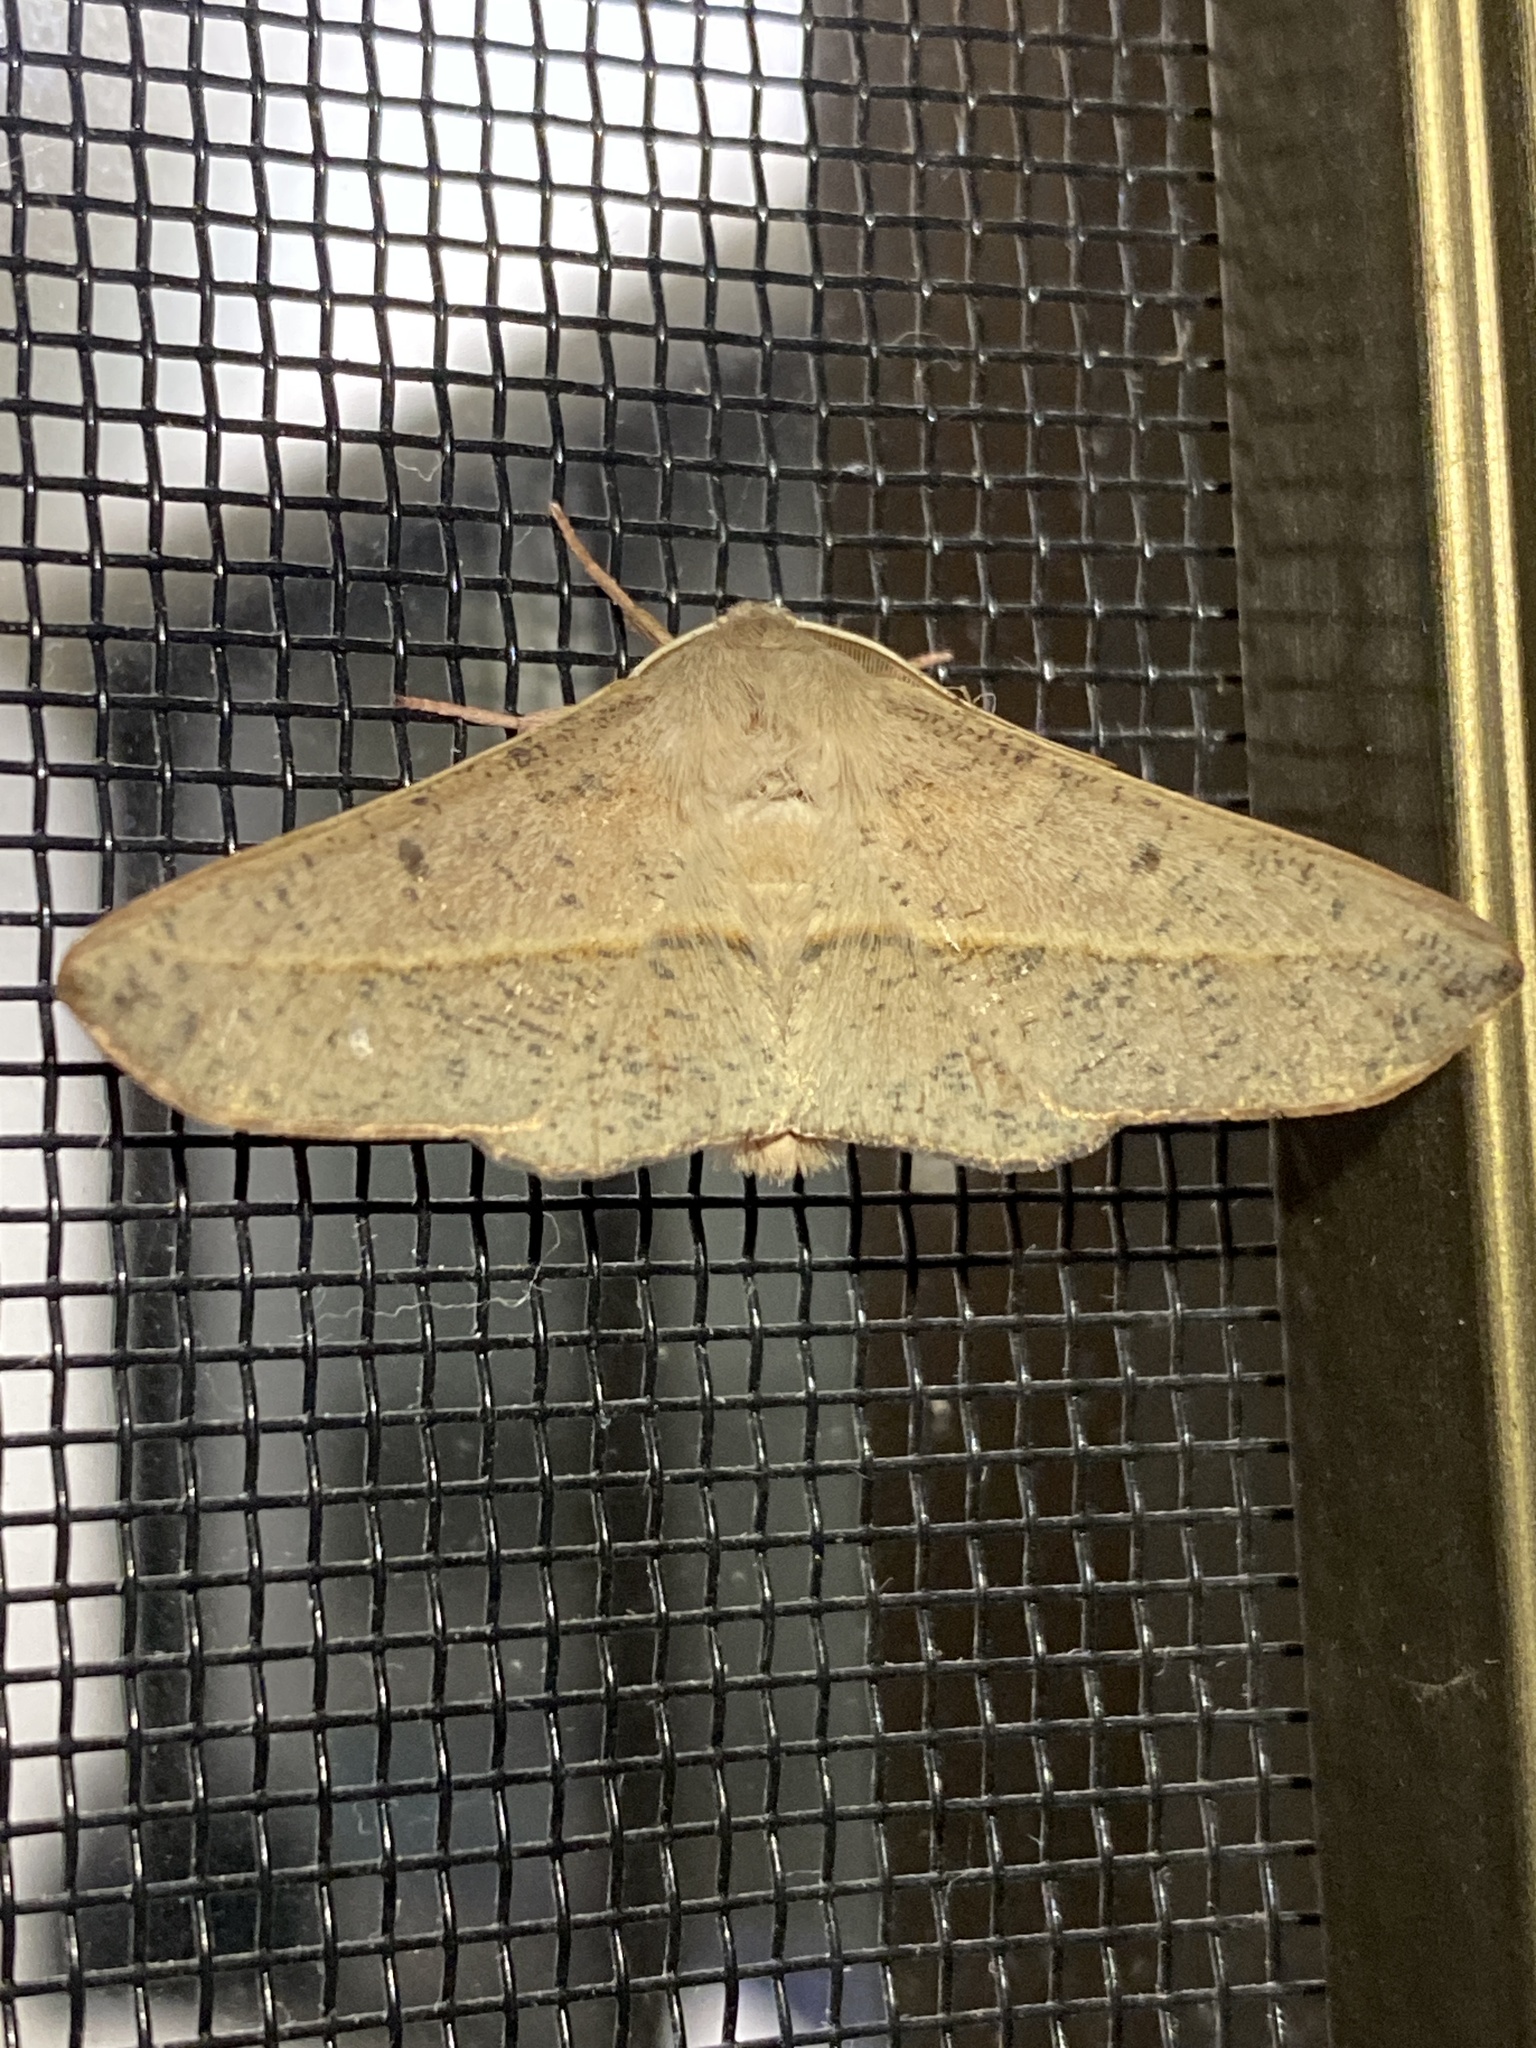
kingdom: Animalia
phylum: Arthropoda
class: Insecta
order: Lepidoptera
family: Geometridae
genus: Antictenia
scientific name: Antictenia punctunculus
